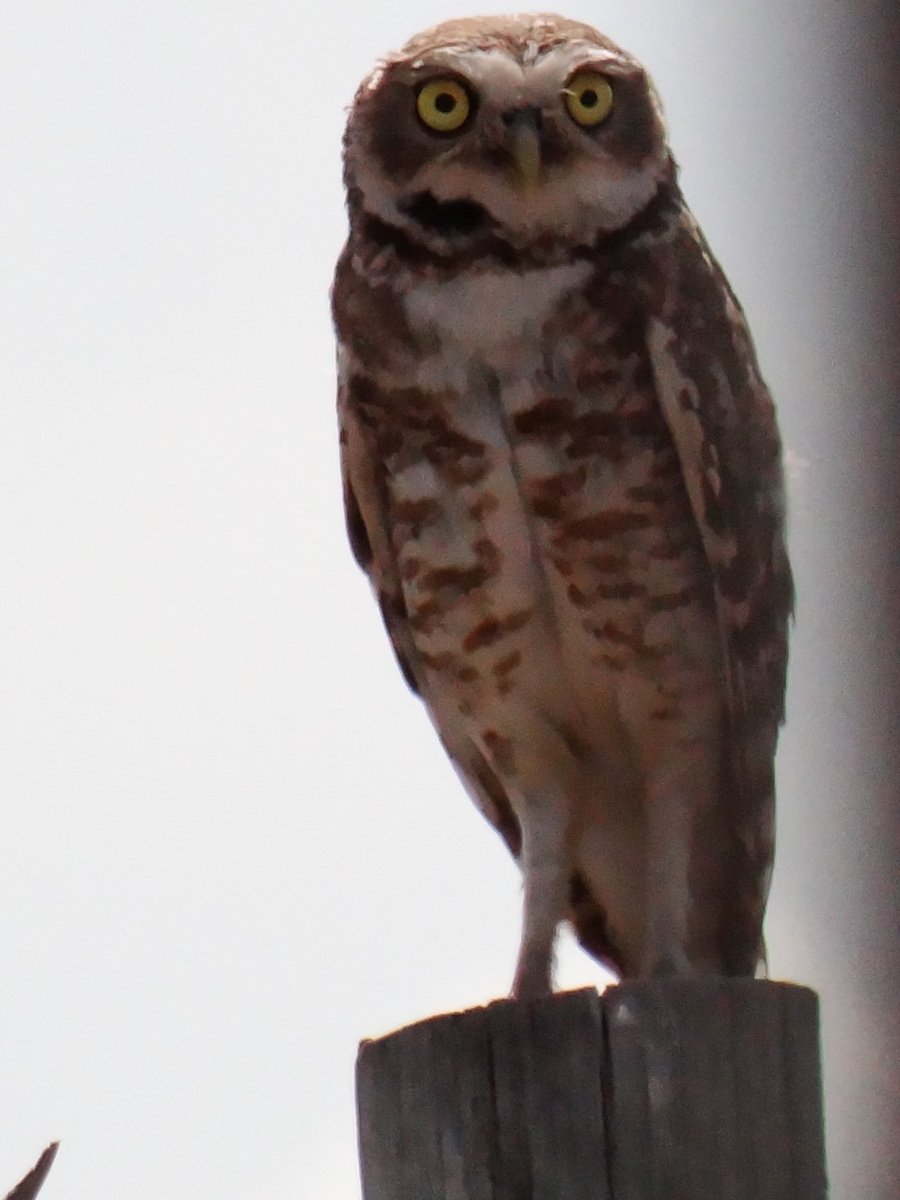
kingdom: Animalia
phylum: Chordata
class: Aves
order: Strigiformes
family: Strigidae
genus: Athene
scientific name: Athene cunicularia
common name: Burrowing owl
